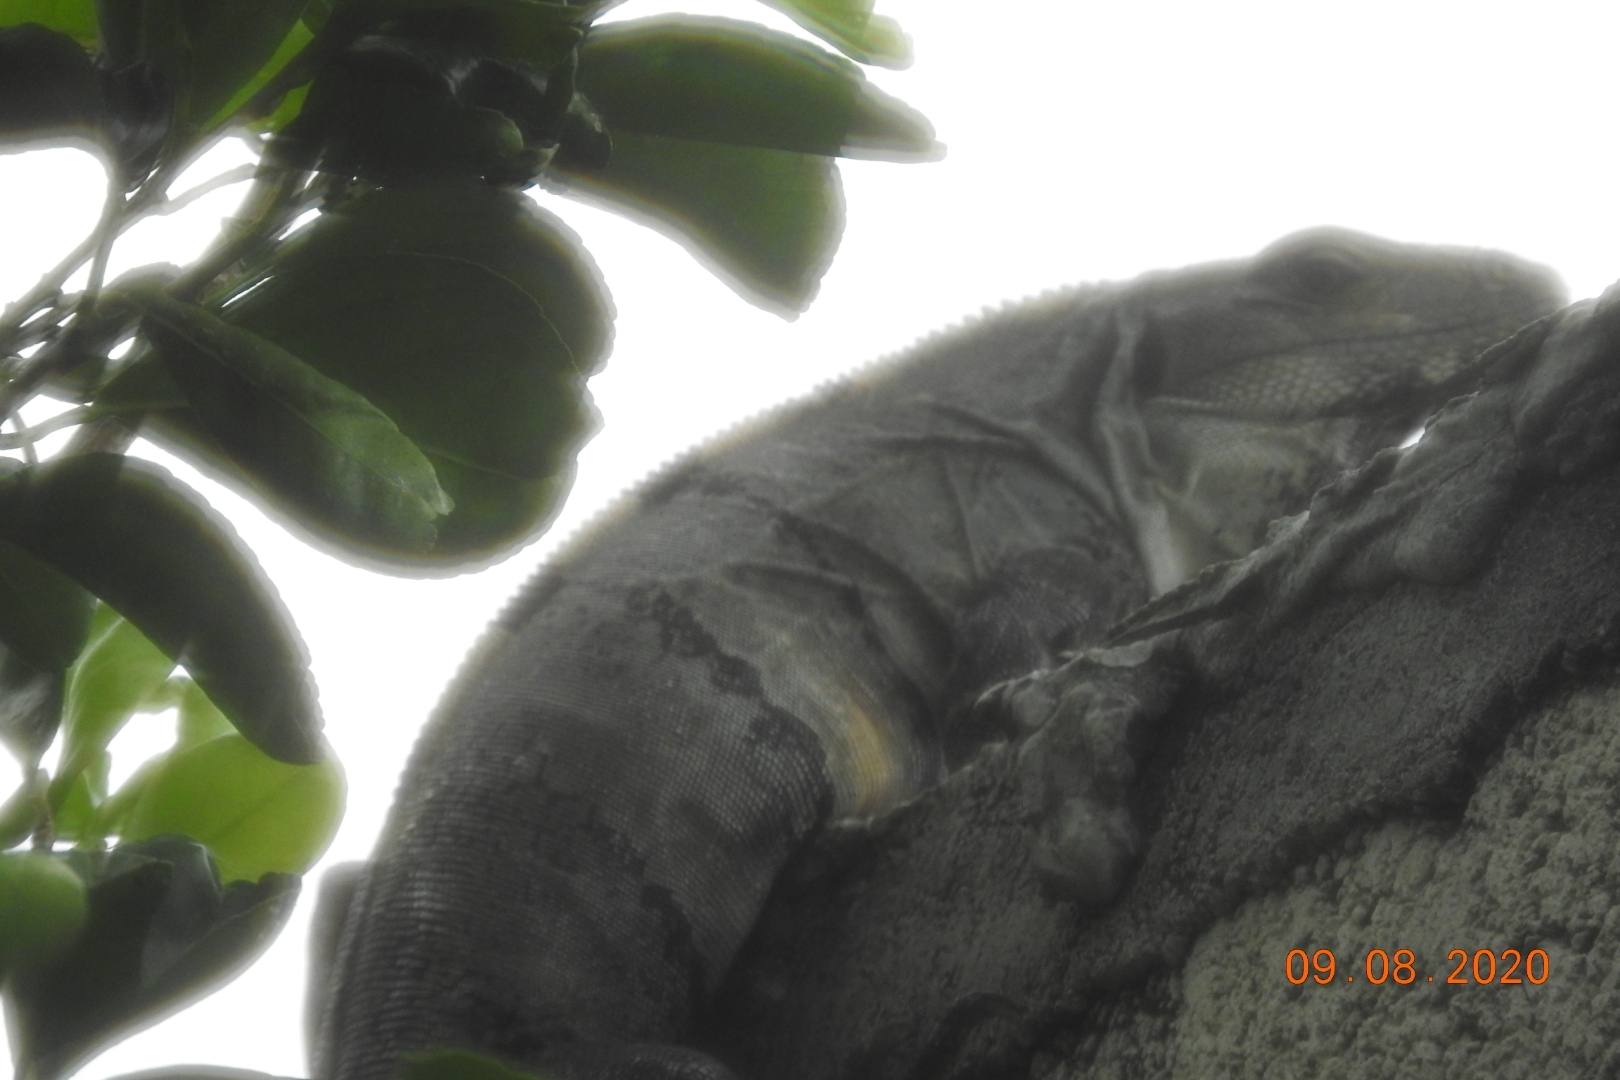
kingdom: Animalia
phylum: Chordata
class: Squamata
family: Iguanidae
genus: Ctenosaura
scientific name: Ctenosaura similis
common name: Black spiny-tailed iguana
